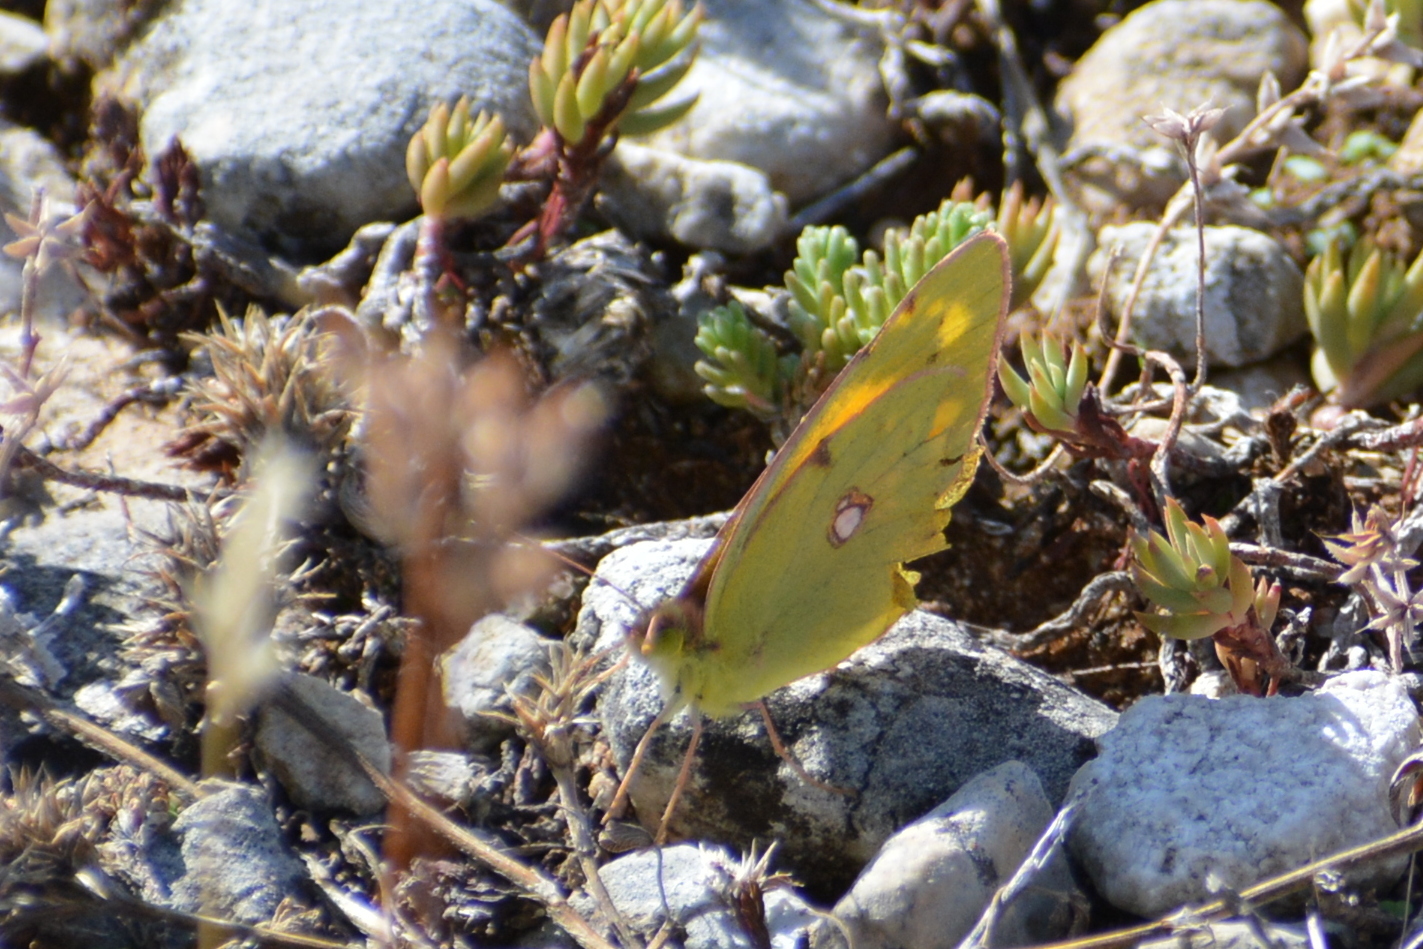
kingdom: Animalia
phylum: Arthropoda
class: Insecta
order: Lepidoptera
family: Pieridae
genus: Colias
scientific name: Colias croceus
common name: Clouded yellow
